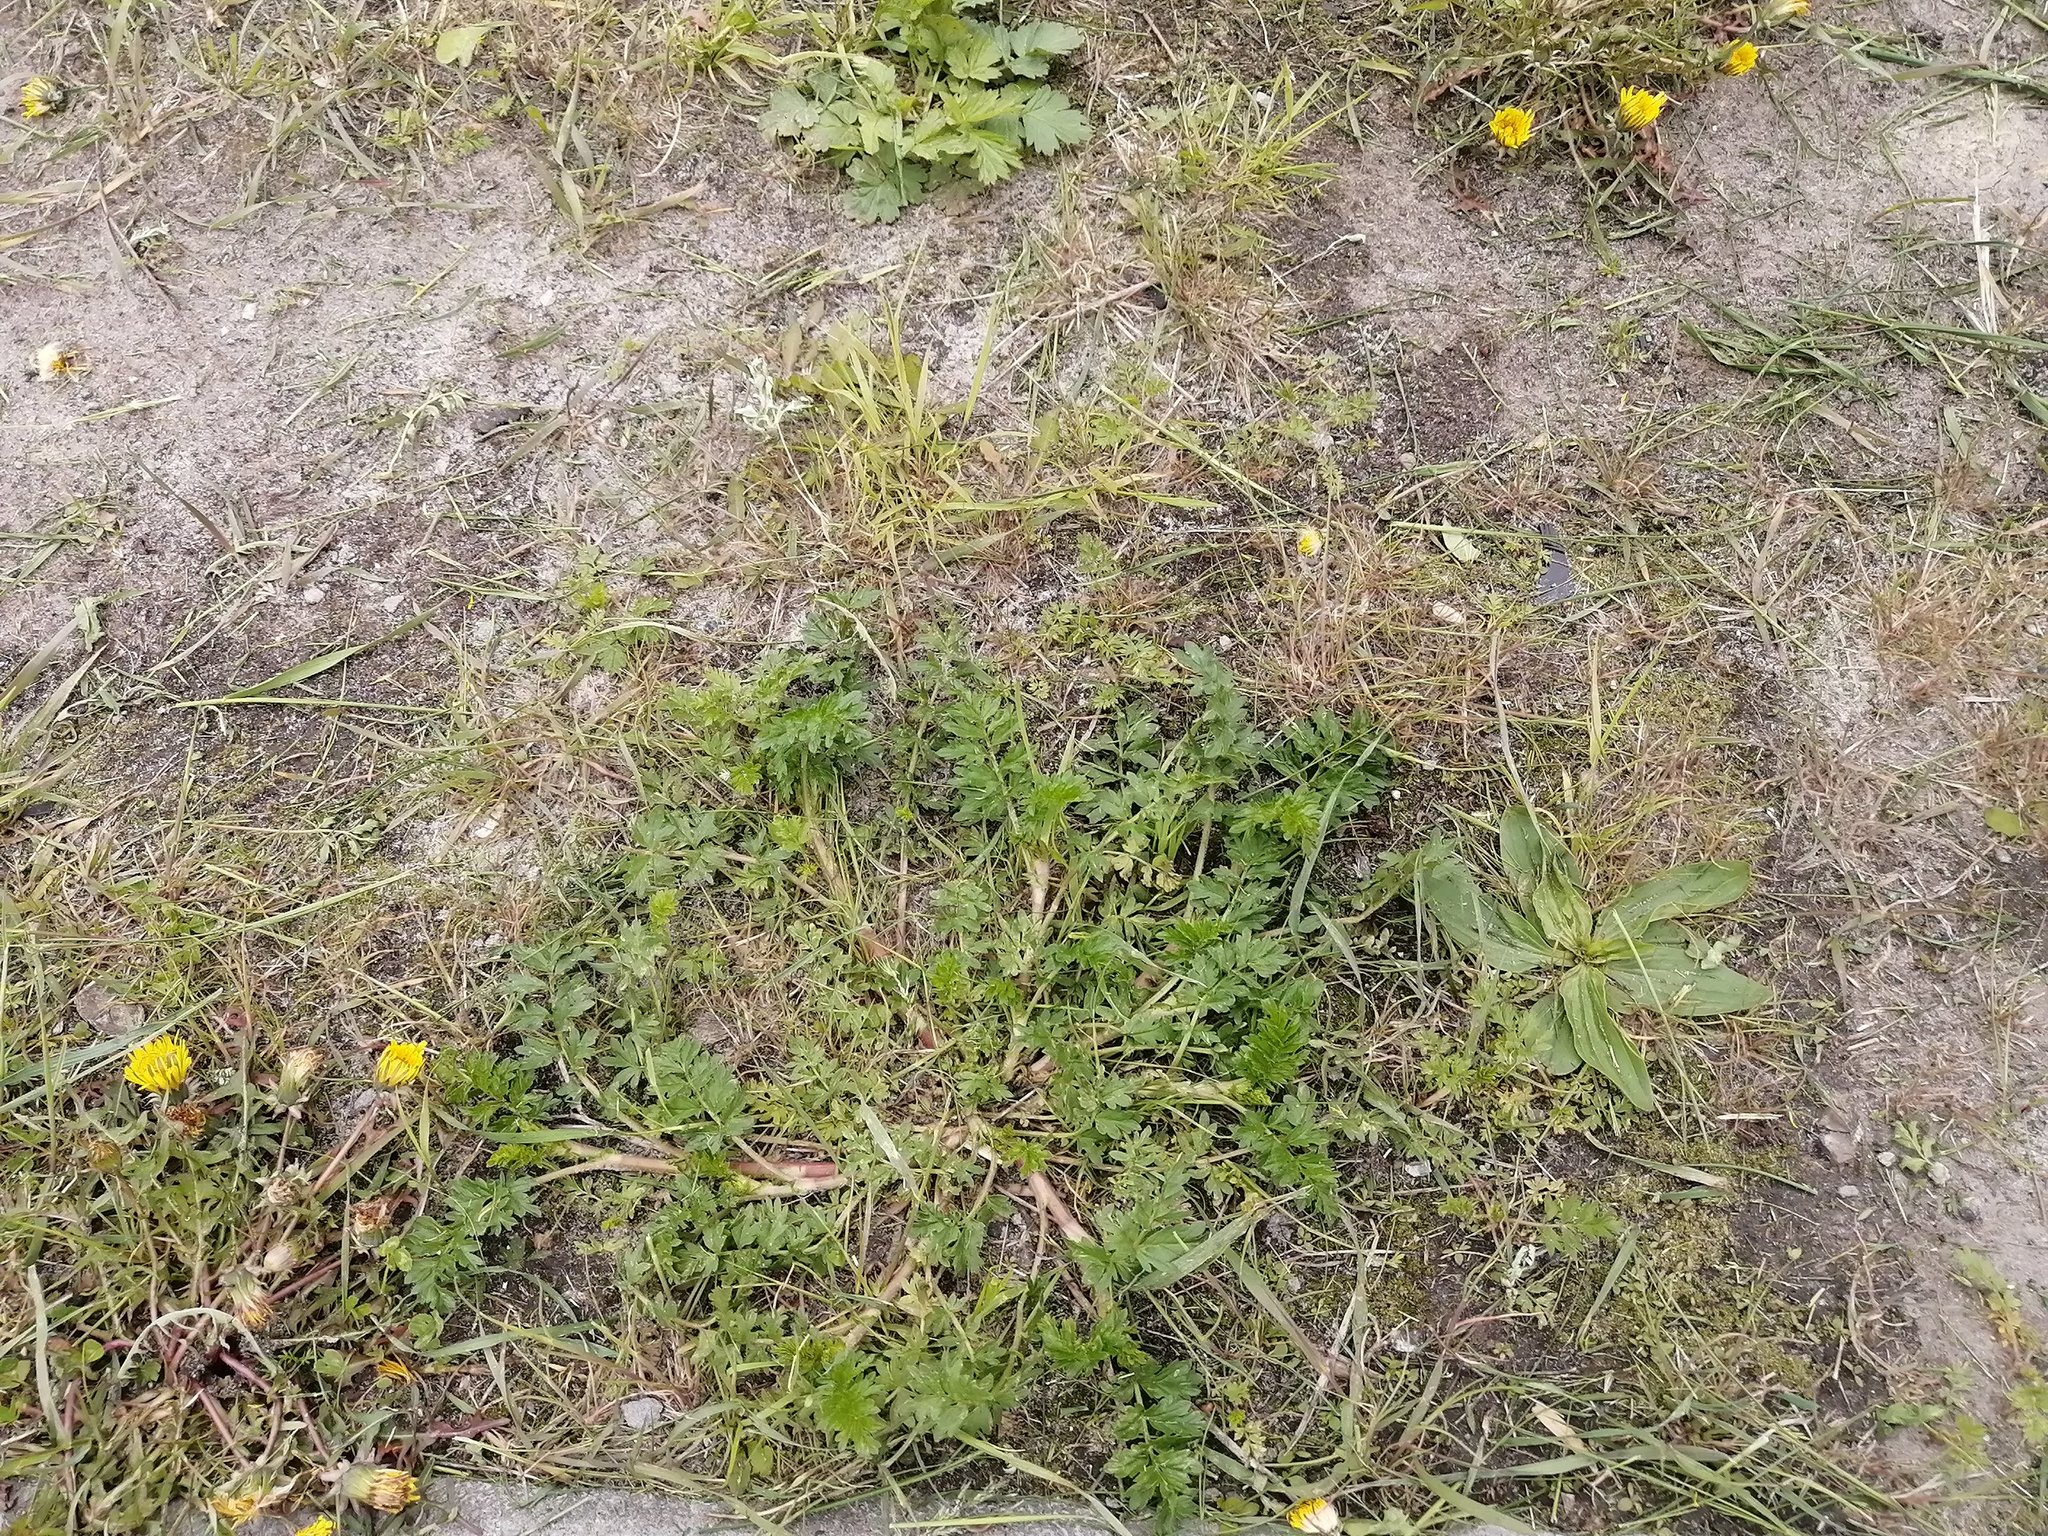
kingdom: Plantae
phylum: Tracheophyta
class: Magnoliopsida
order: Rosales
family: Rosaceae
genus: Potentilla
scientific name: Potentilla supina
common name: Prostrate cinquefoil
